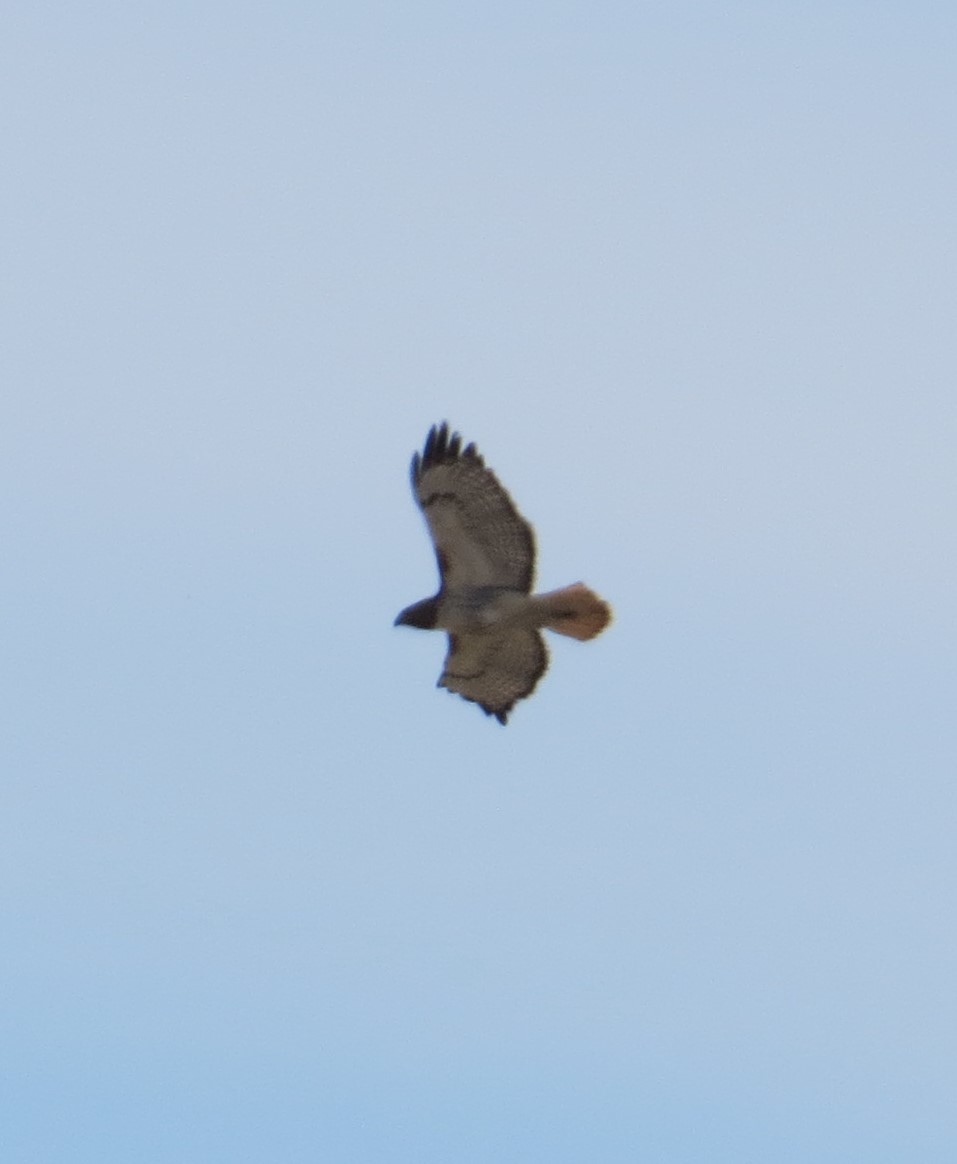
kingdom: Animalia
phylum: Chordata
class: Aves
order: Accipitriformes
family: Accipitridae
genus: Buteo
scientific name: Buteo jamaicensis
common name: Red-tailed hawk
